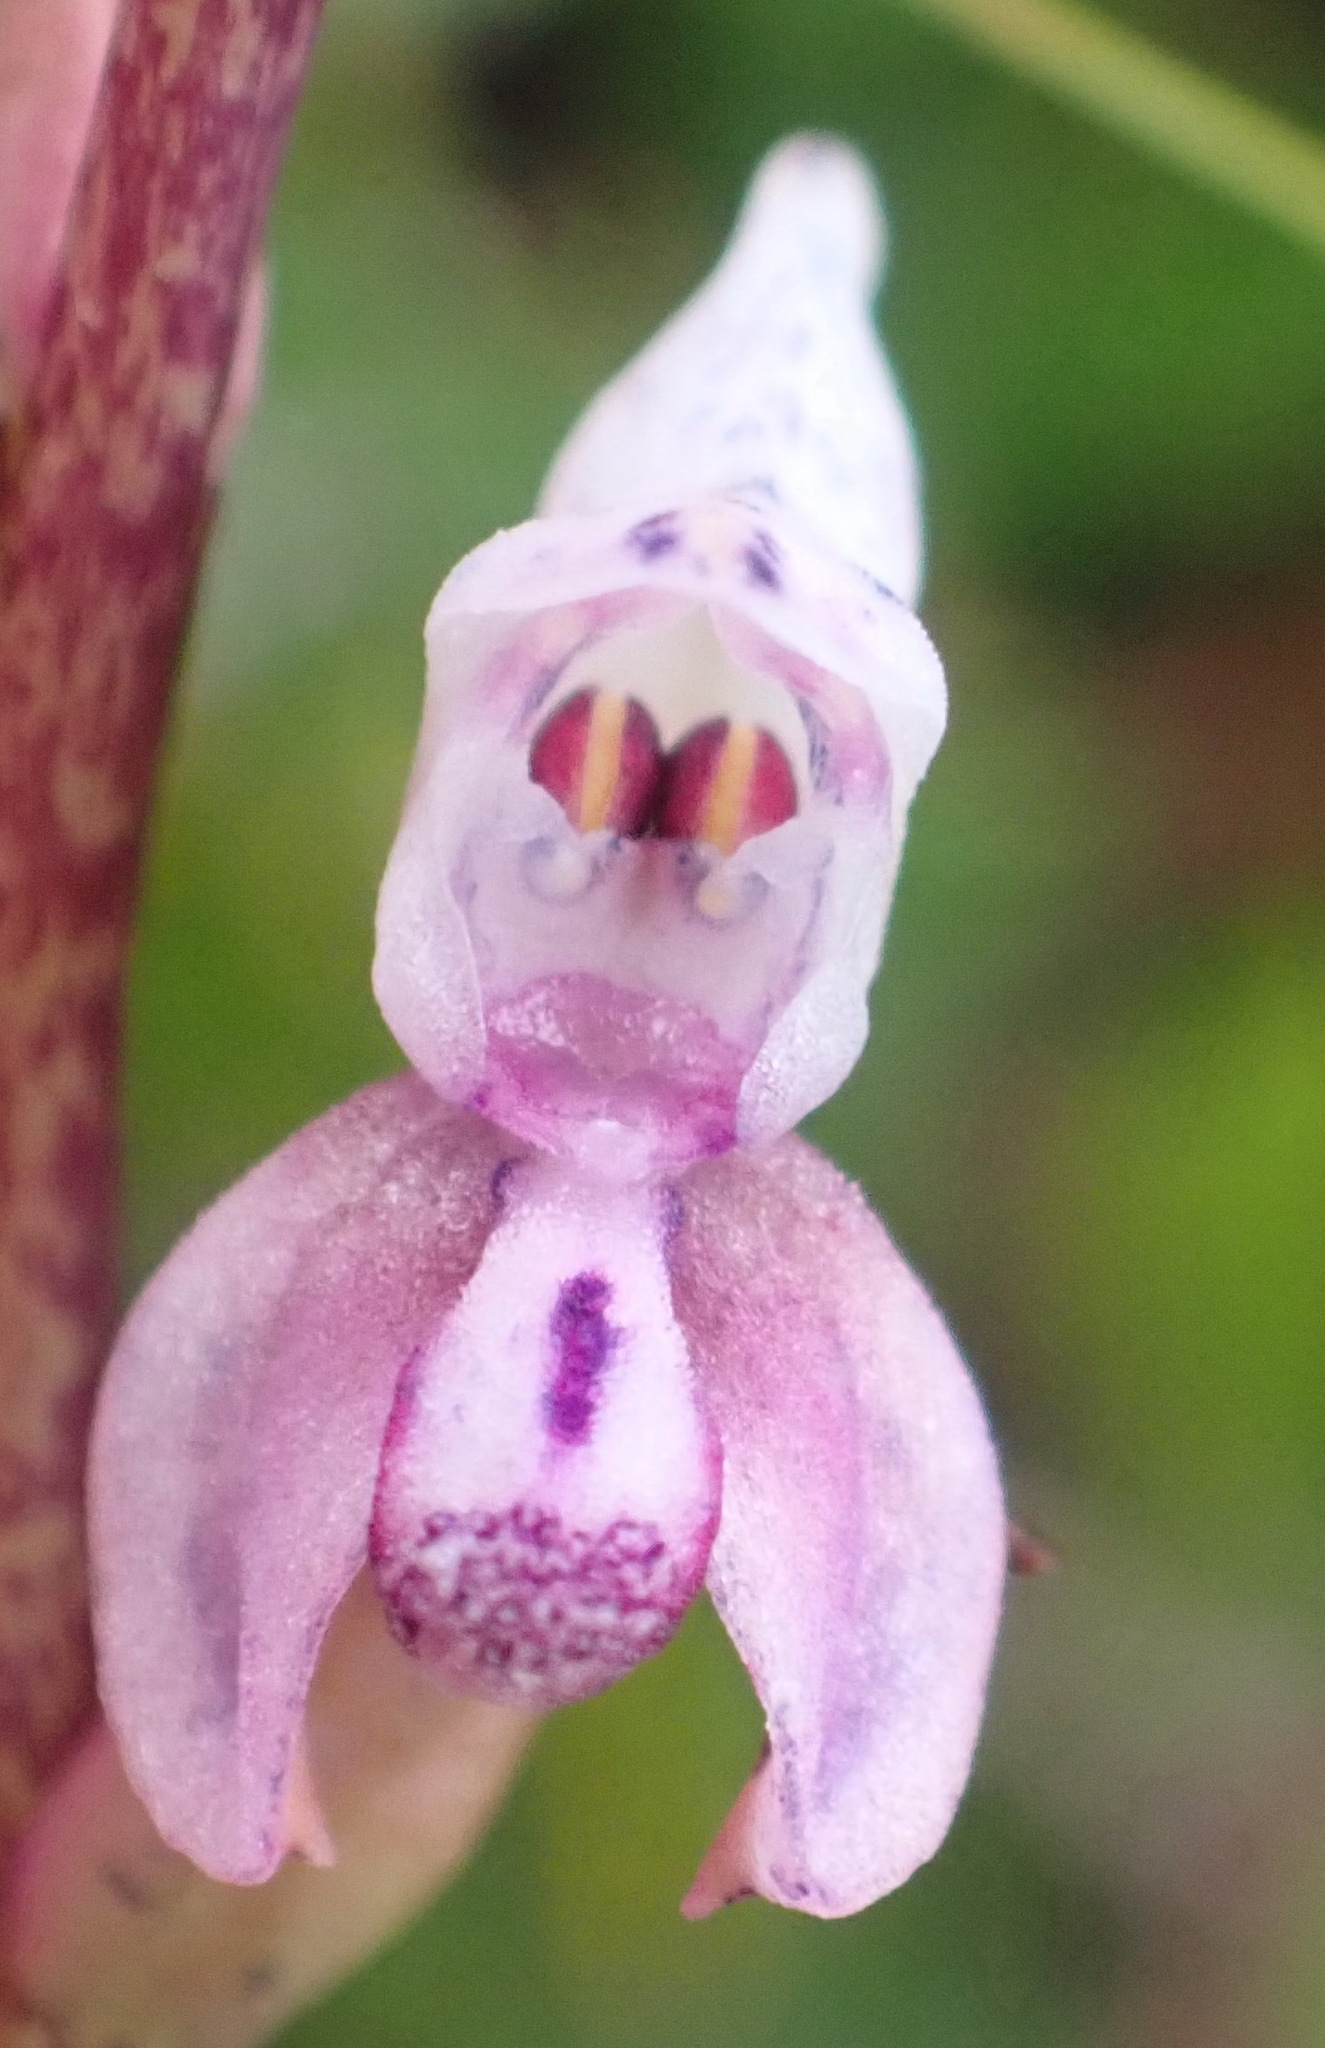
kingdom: Plantae
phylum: Tracheophyta
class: Liliopsida
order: Asparagales
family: Orchidaceae
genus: Disa
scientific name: Disa aconitoides
